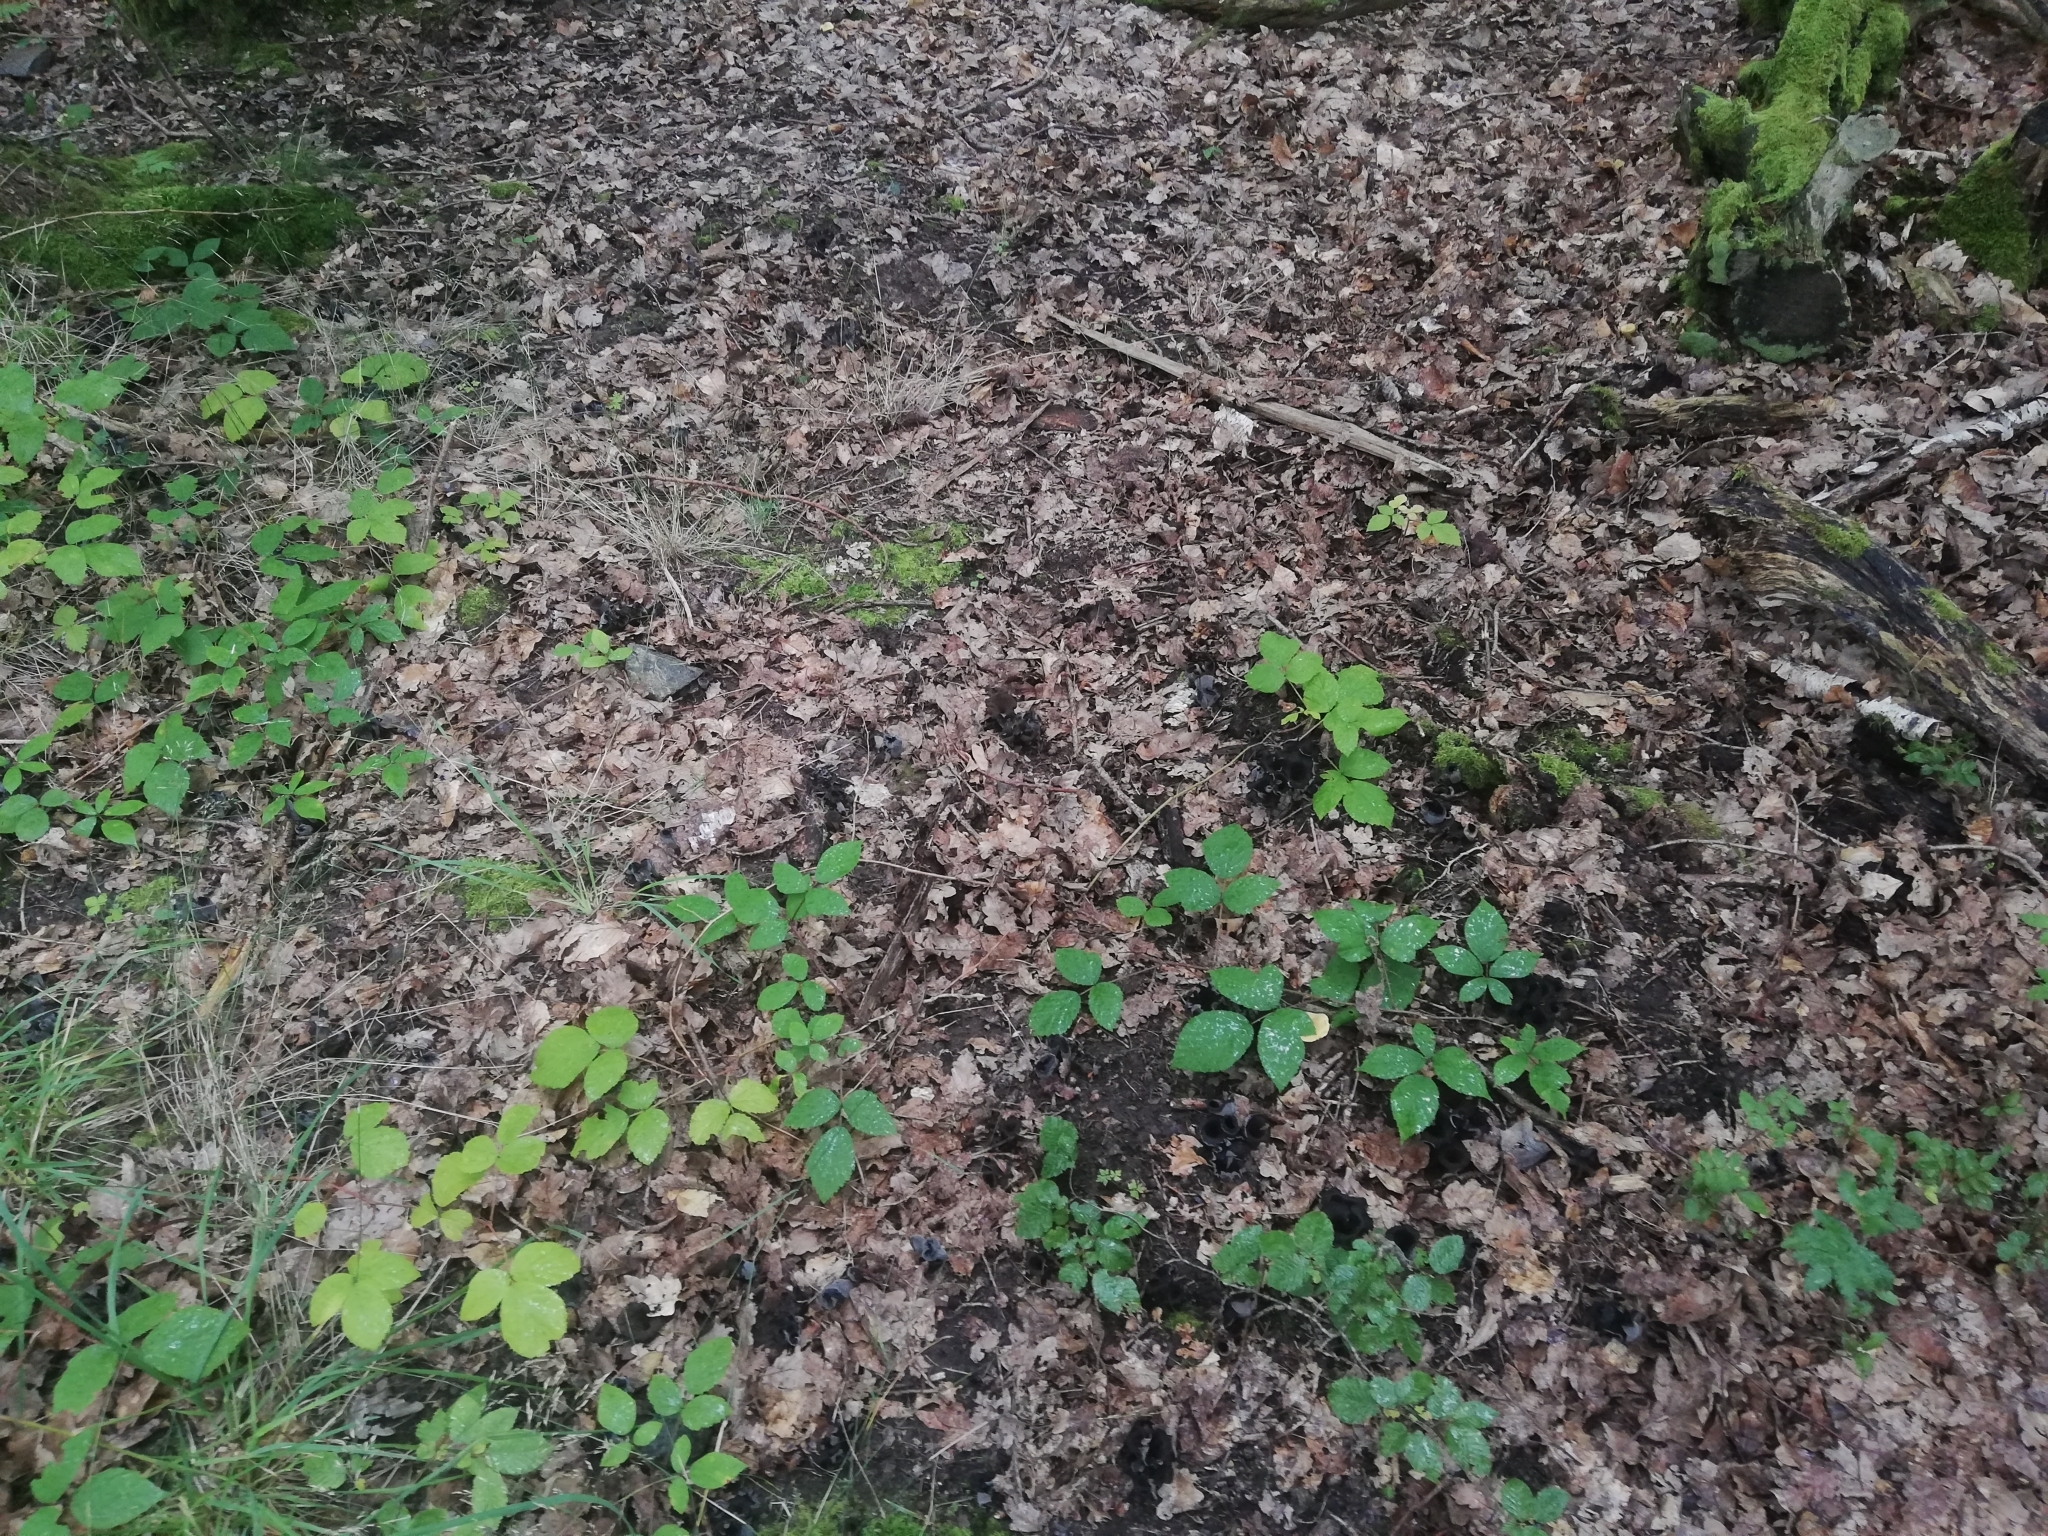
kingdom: Fungi
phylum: Basidiomycota
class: Agaricomycetes
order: Cantharellales
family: Hydnaceae
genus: Craterellus
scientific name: Craterellus cornucopioides
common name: Horn of plenty
